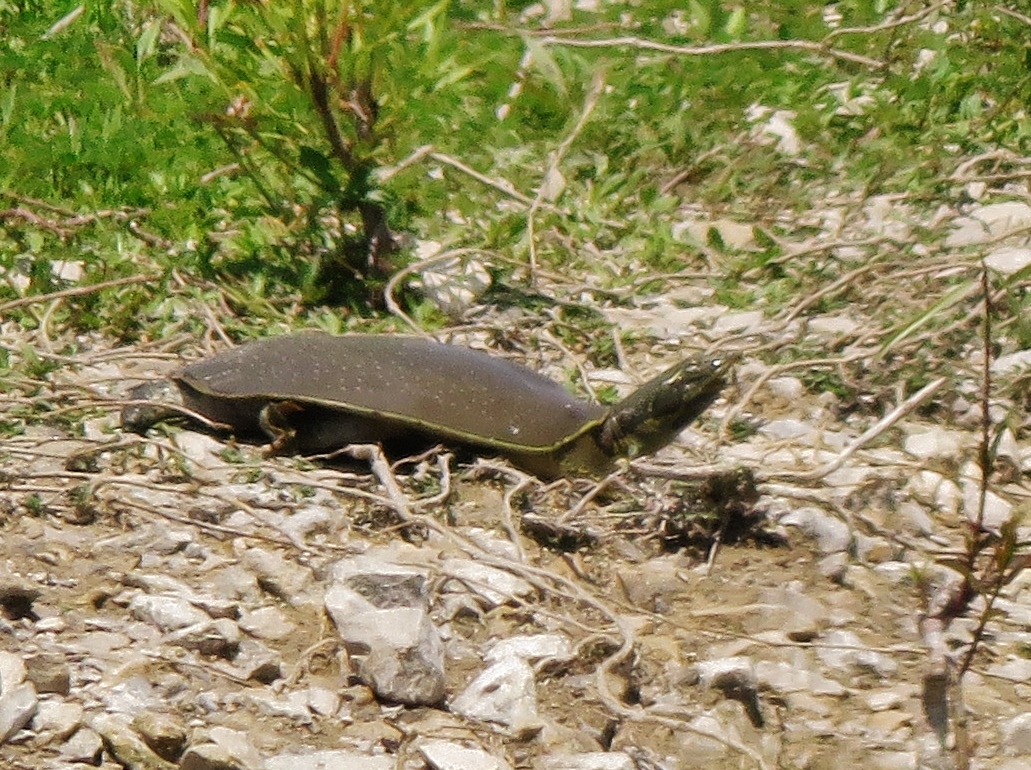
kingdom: Animalia
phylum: Chordata
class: Testudines
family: Trionychidae
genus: Apalone
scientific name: Apalone spinifera
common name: Spiny softshell turtle
